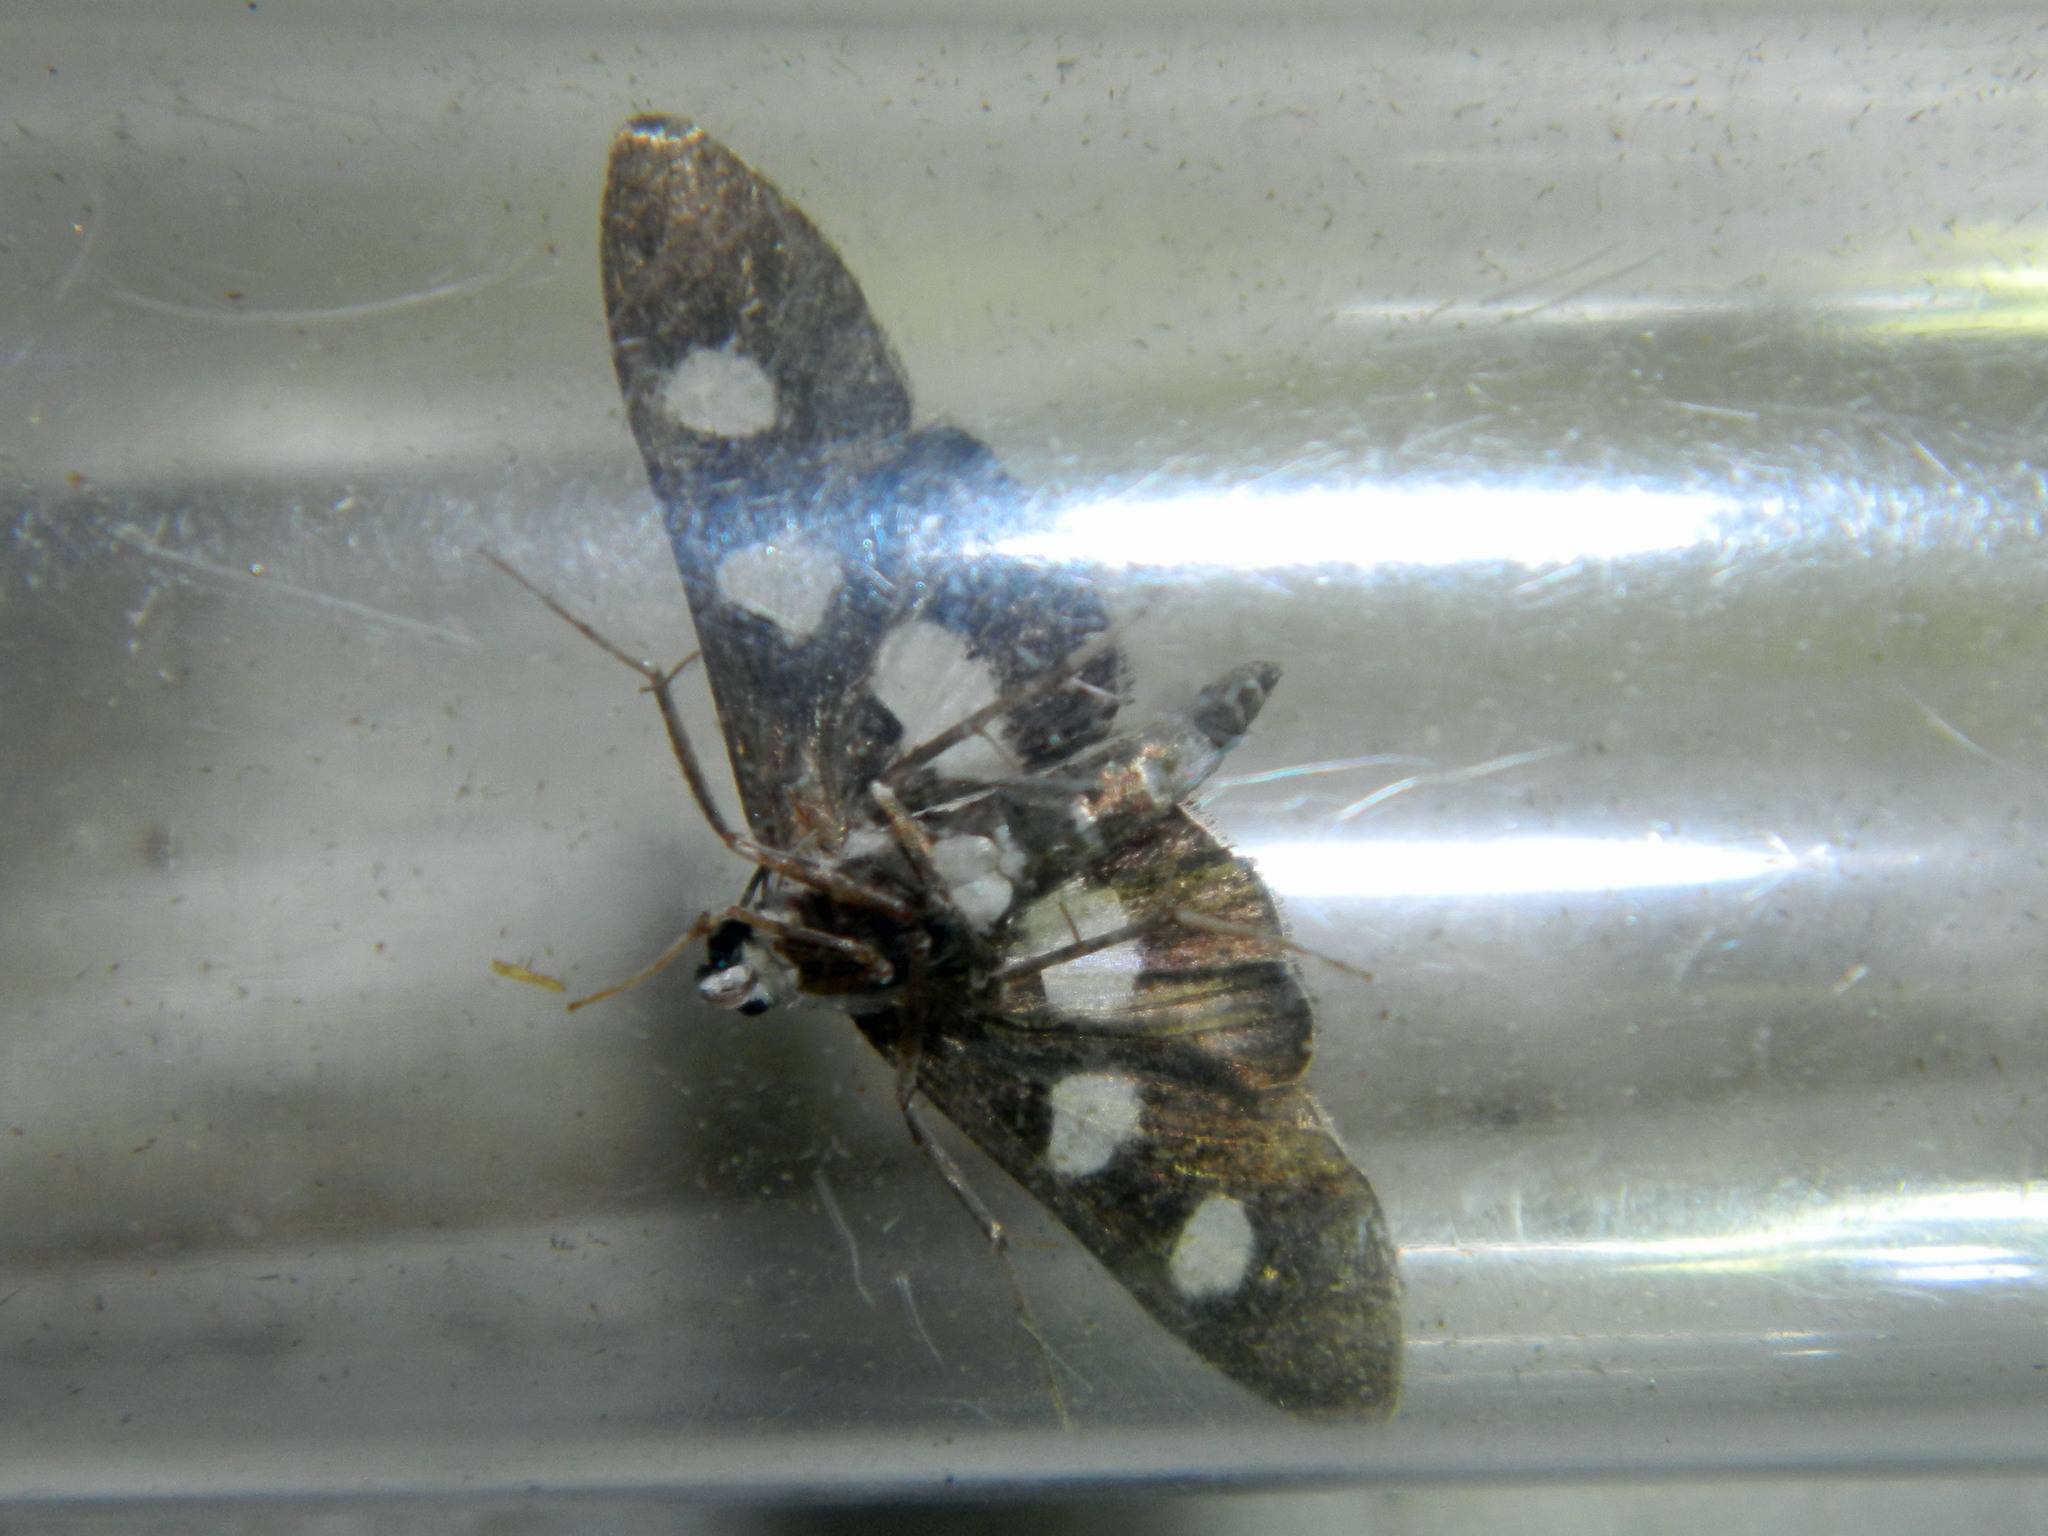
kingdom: Animalia
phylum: Arthropoda
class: Insecta
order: Lepidoptera
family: Crambidae
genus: Desmia
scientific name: Desmia funeralis
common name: Grape leaf folder moth
